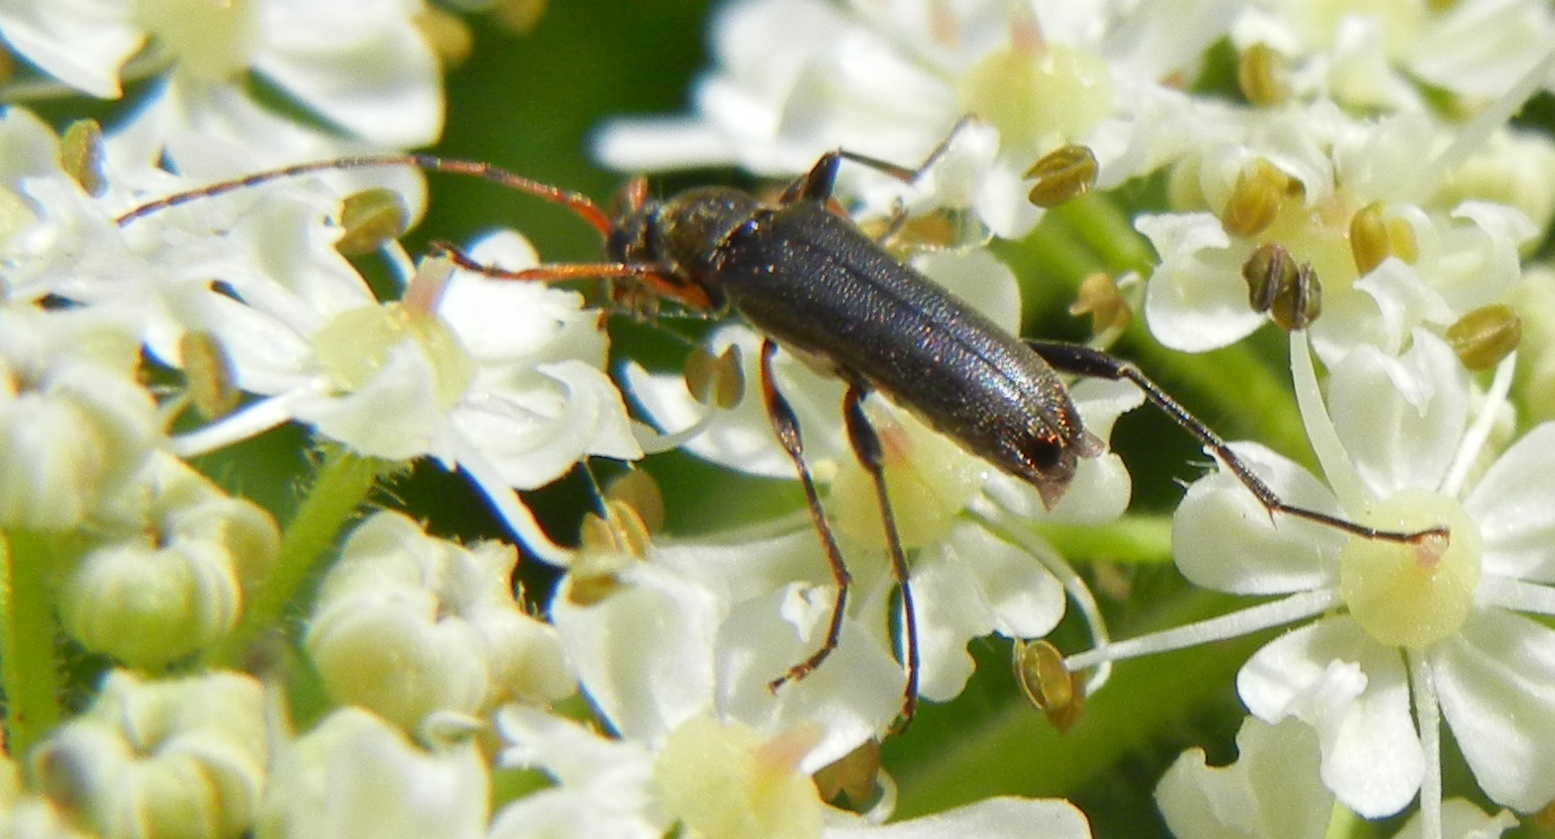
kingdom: Animalia
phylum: Arthropoda
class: Insecta
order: Coleoptera
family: Cerambycidae
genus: Grammoptera
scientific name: Grammoptera ruficornis
